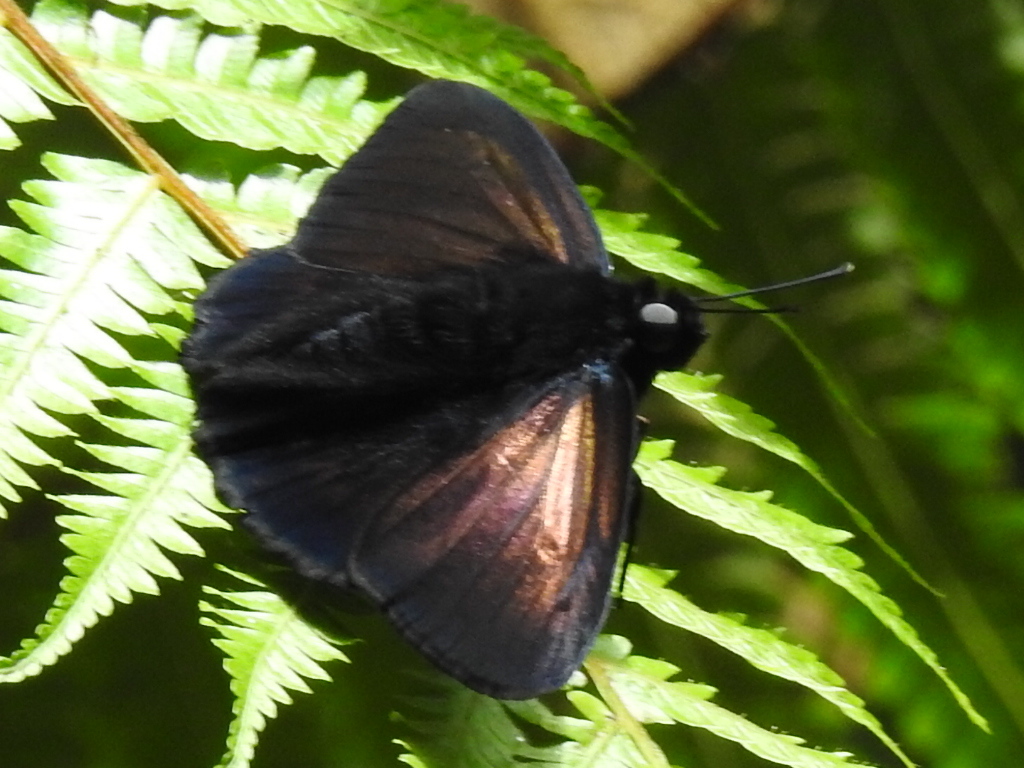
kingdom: Animalia
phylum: Arthropoda
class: Insecta
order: Lepidoptera
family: Hesperiidae
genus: Creonpyge
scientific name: Creonpyge creon
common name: Creon skipper
